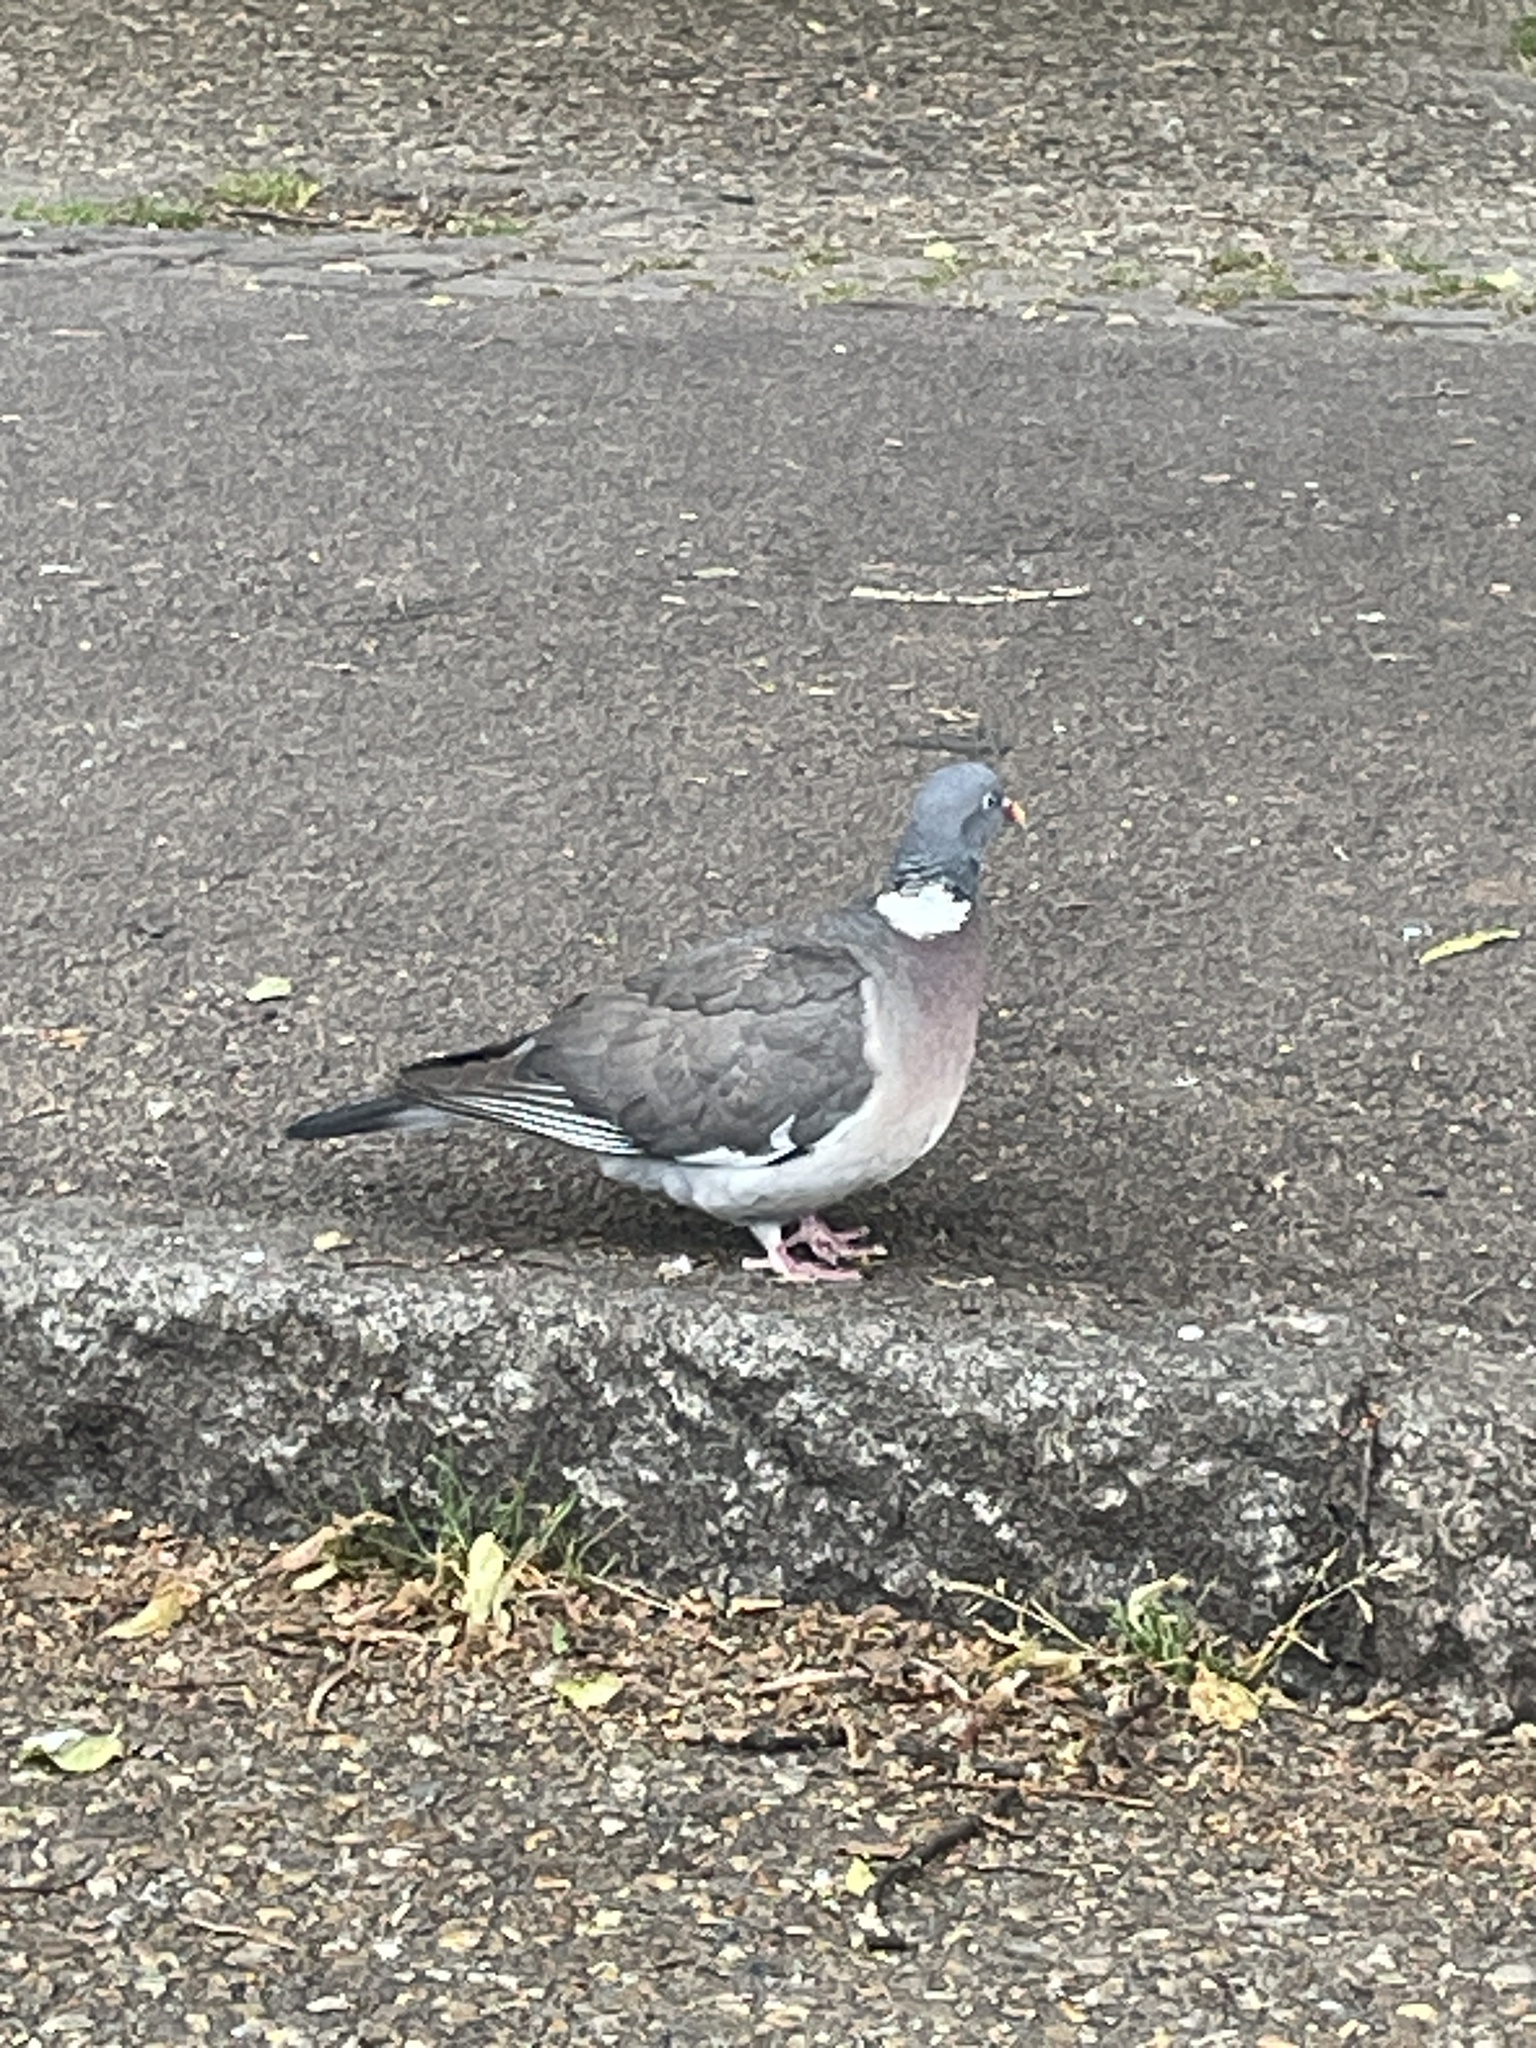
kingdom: Animalia
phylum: Chordata
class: Aves
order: Columbiformes
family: Columbidae
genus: Columba
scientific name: Columba palumbus
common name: Common wood pigeon
